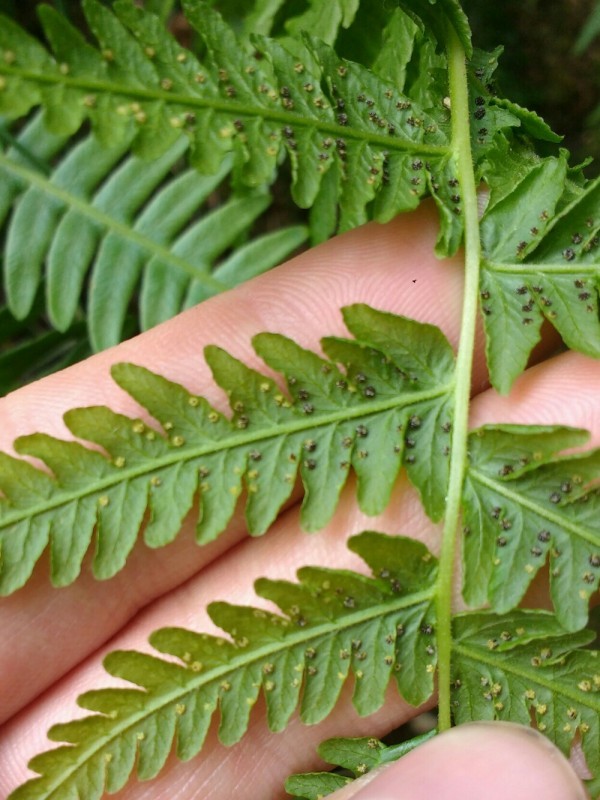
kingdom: Plantae
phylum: Tracheophyta
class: Polypodiopsida
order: Polypodiales
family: Thelypteridaceae
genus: Thelypteris
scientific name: Thelypteris palustris
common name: Marsh fern
